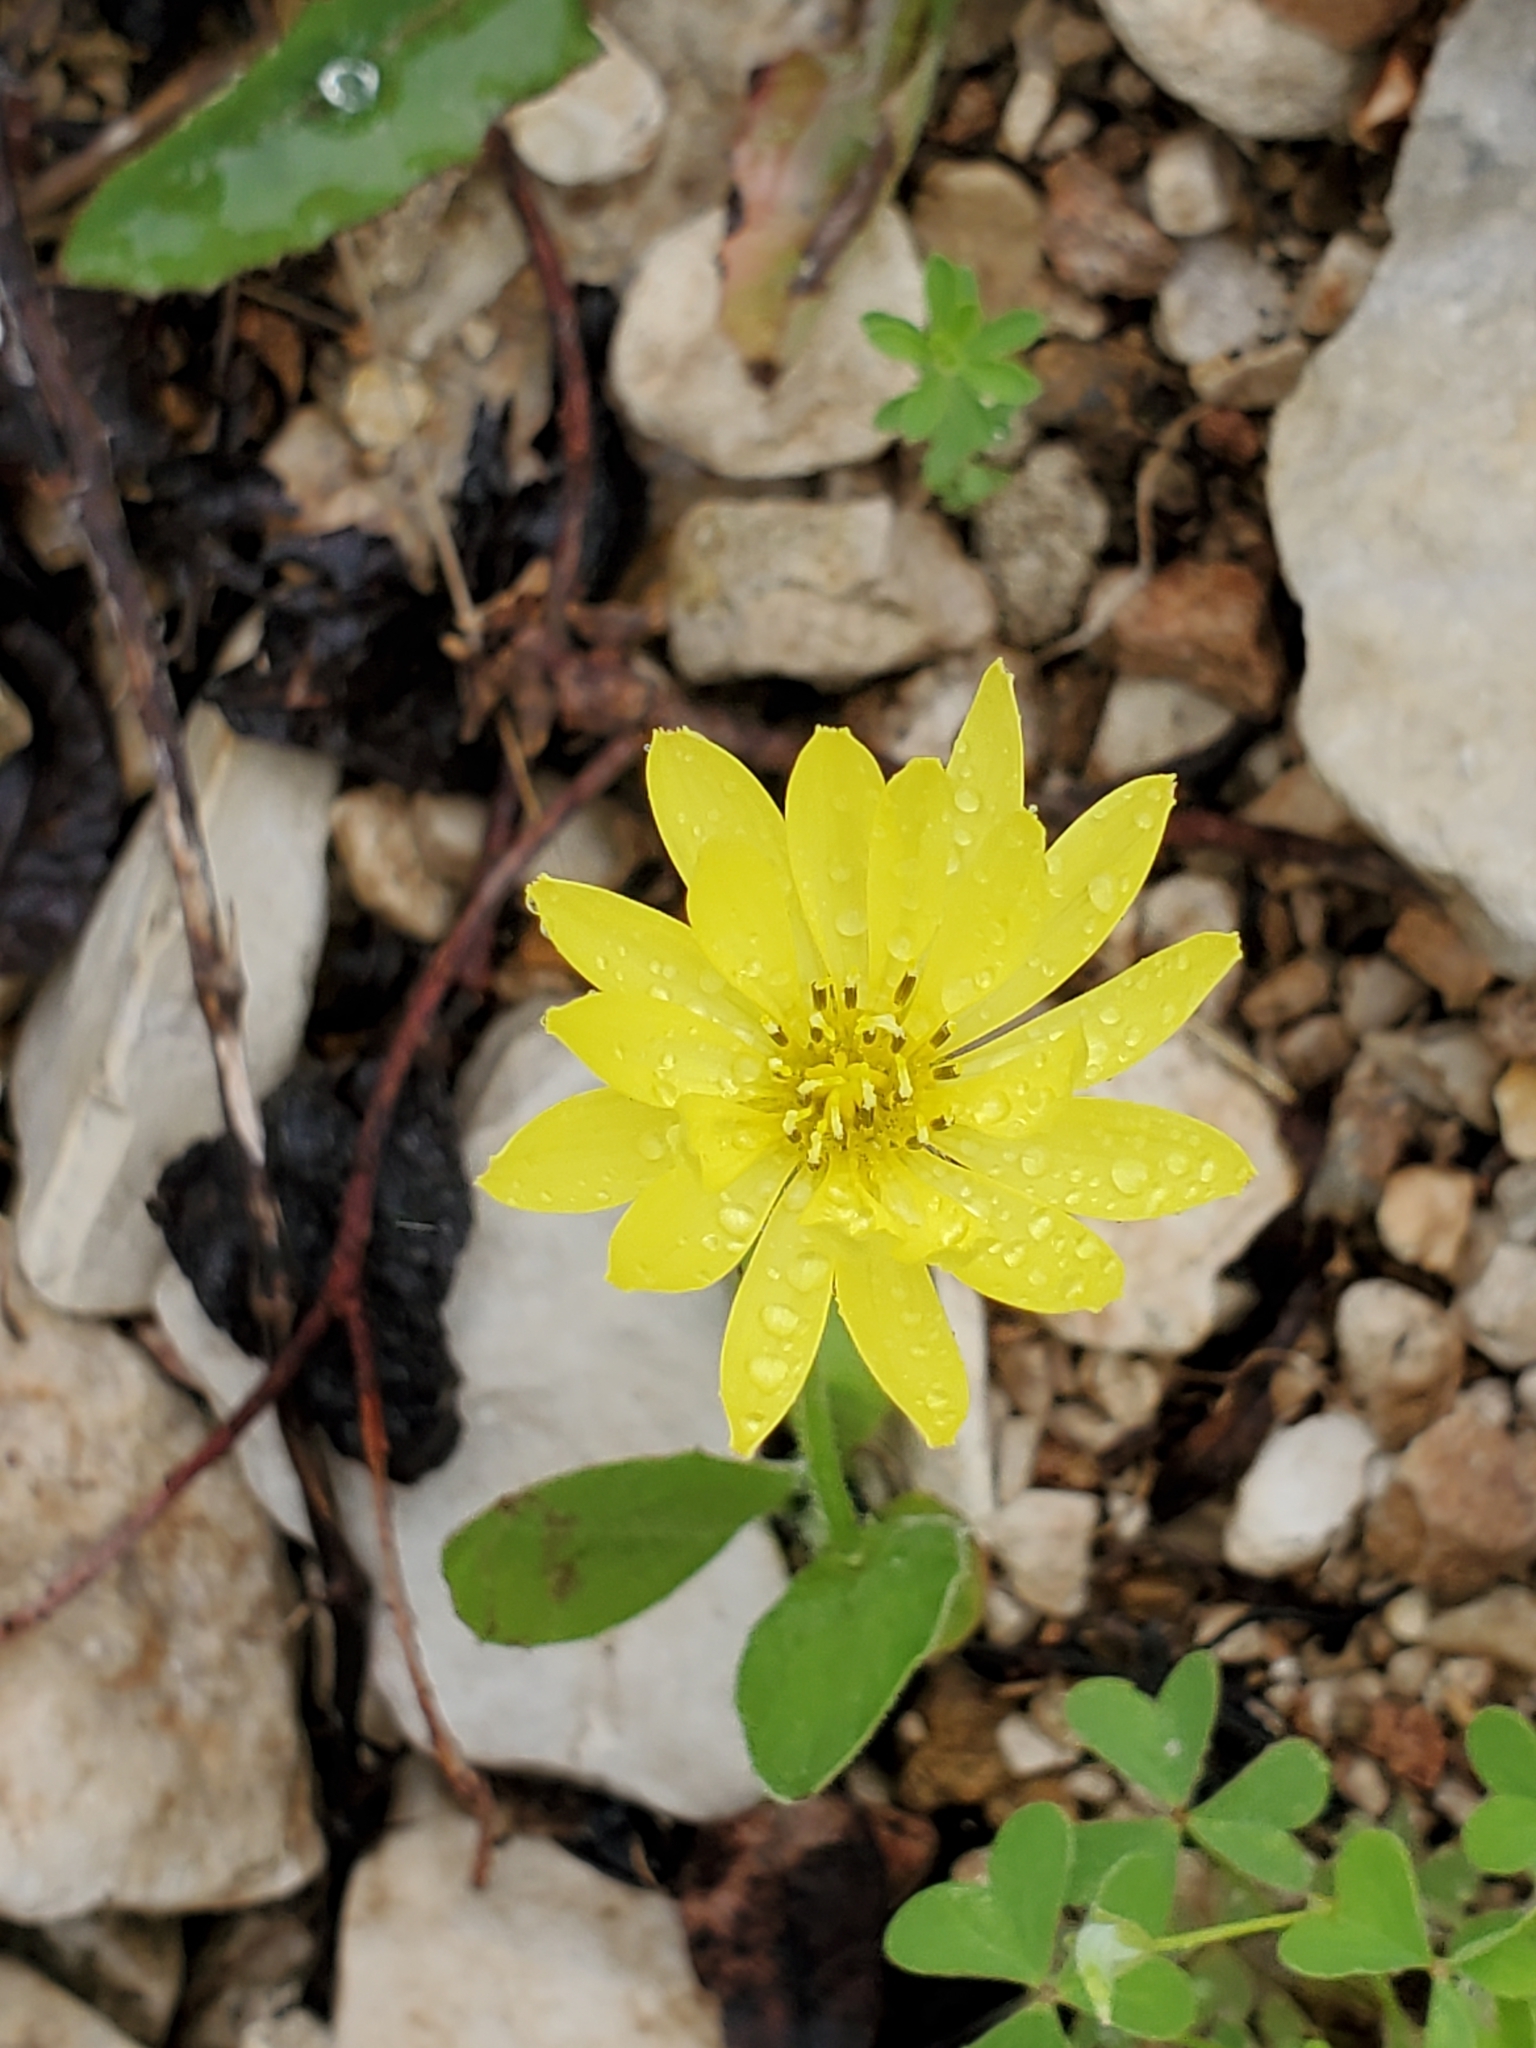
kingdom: Plantae
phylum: Tracheophyta
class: Magnoliopsida
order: Asterales
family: Asteraceae
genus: Pyrrhopappus
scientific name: Pyrrhopappus pauciflorus
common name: Texas false dandelion
